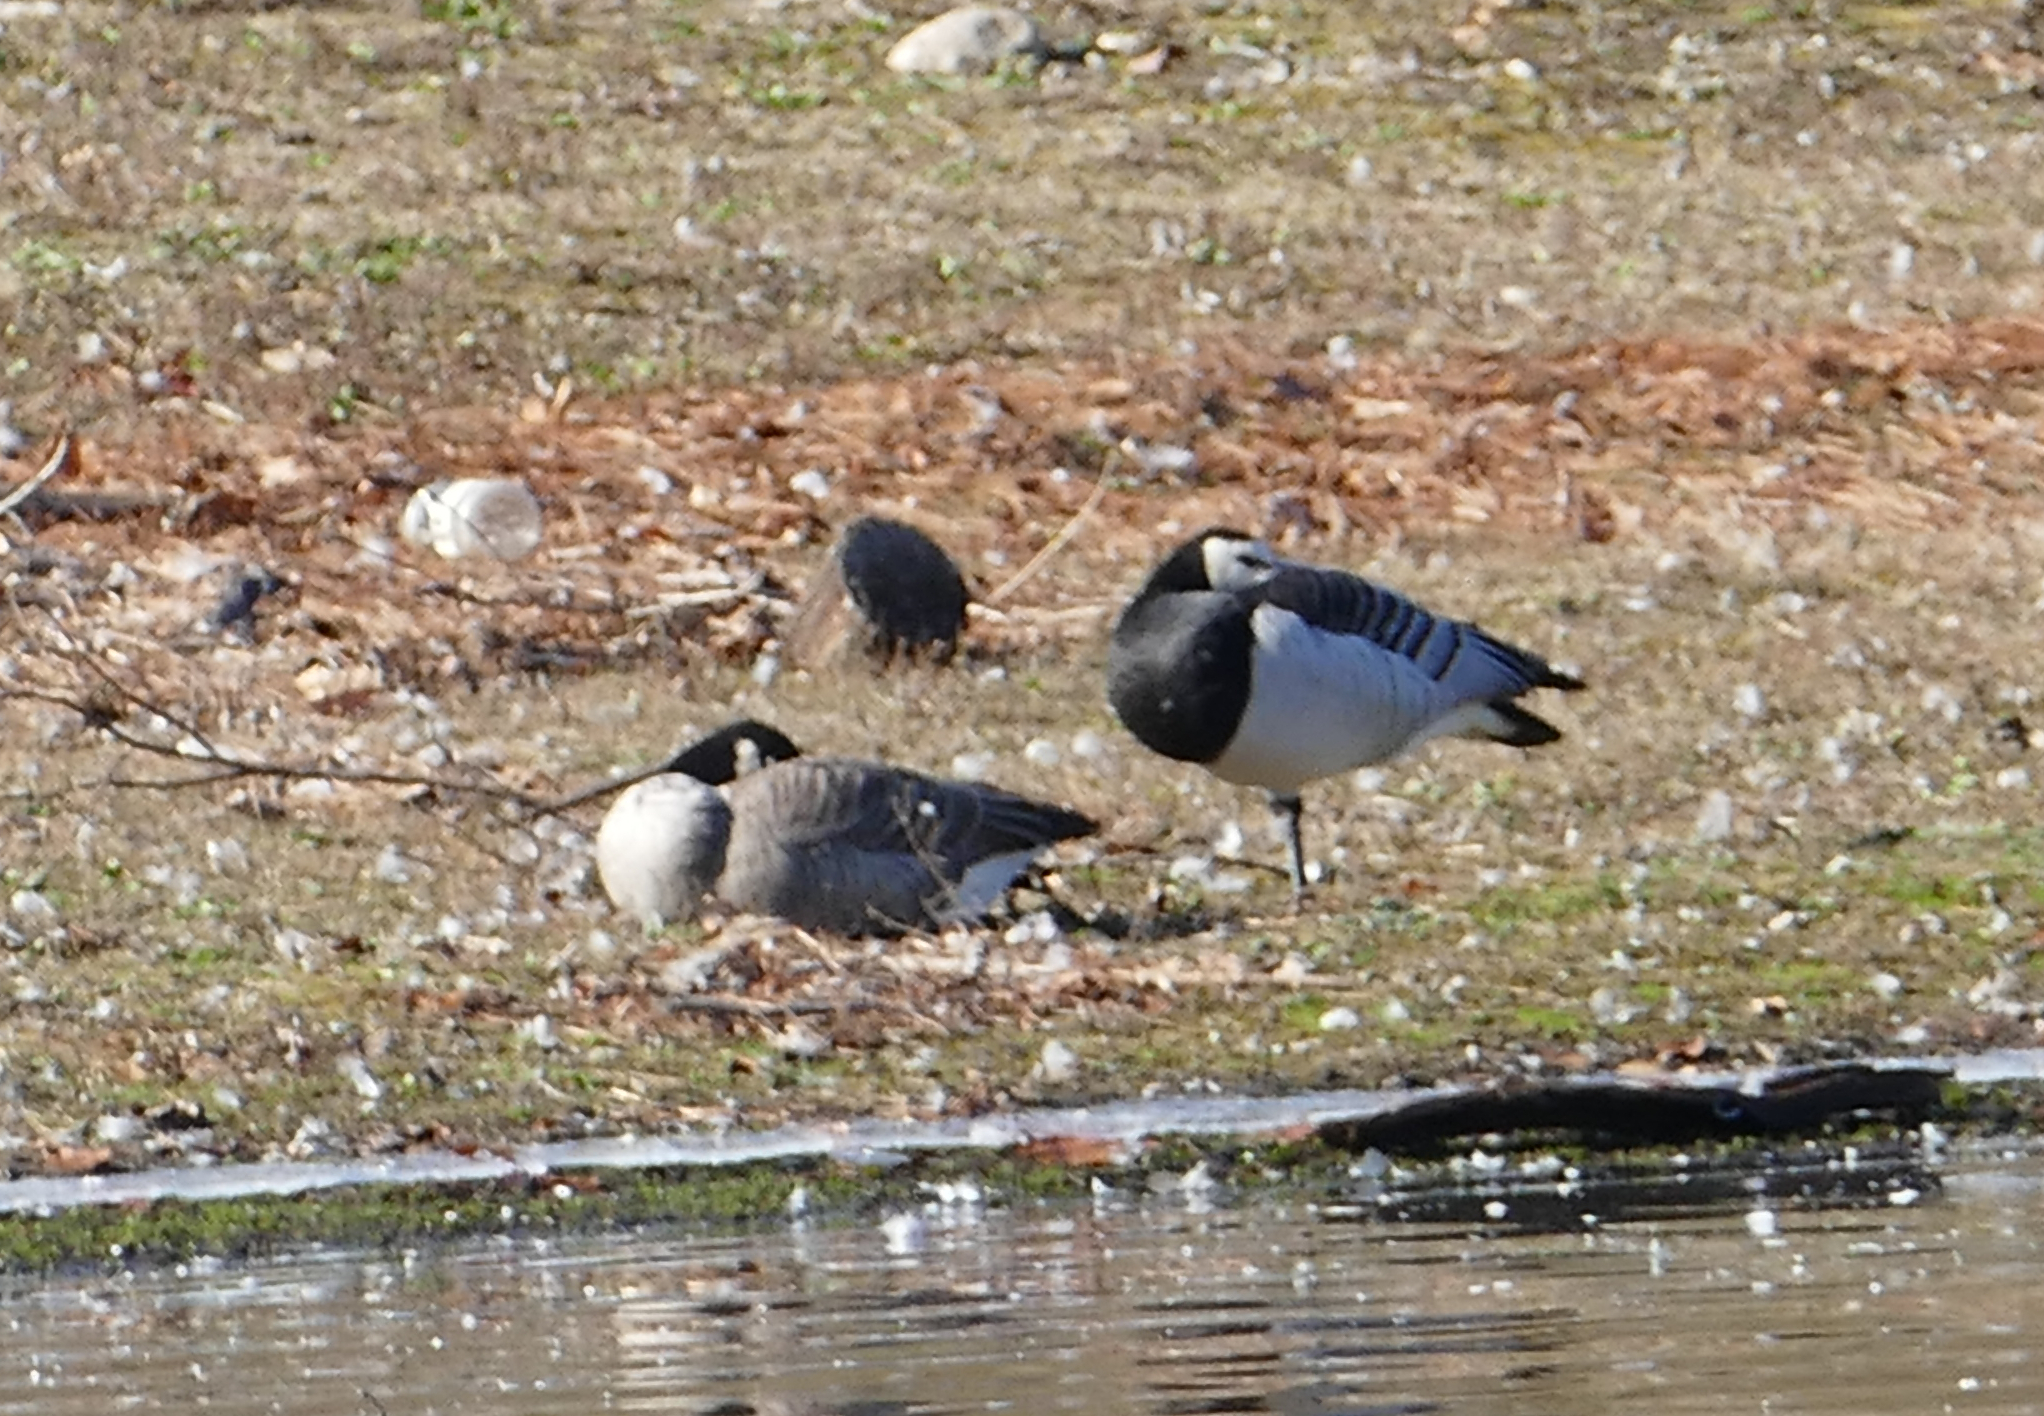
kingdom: Animalia
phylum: Chordata
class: Aves
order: Anseriformes
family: Anatidae
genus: Branta
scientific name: Branta leucopsis
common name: Barnacle goose
